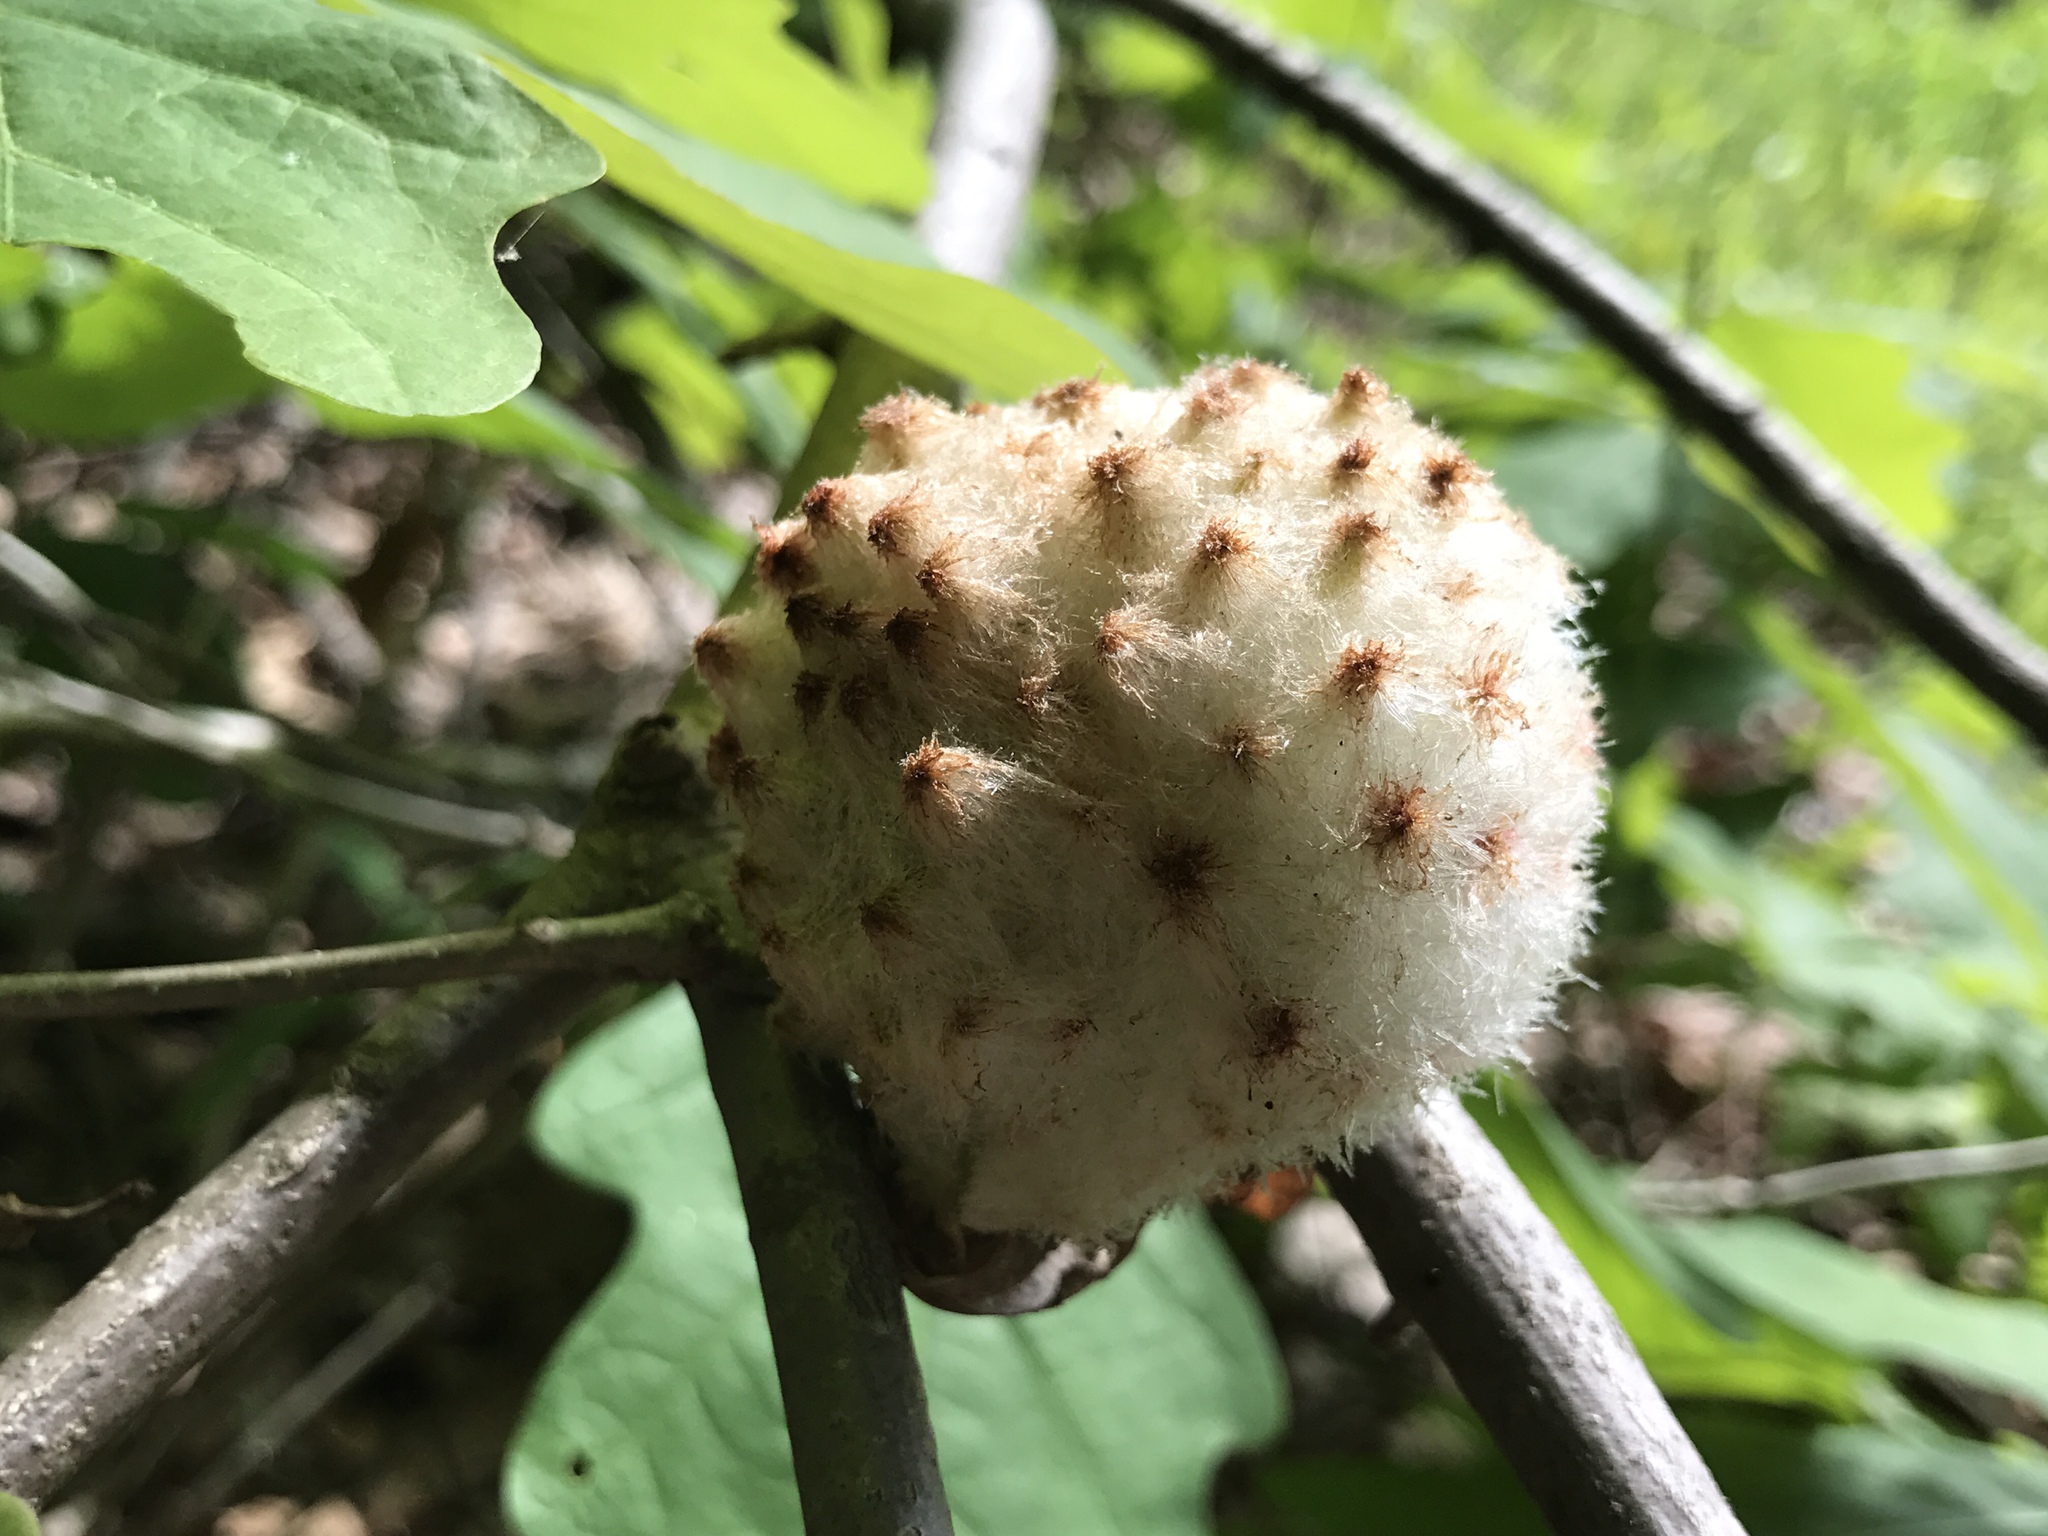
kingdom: Animalia
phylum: Arthropoda
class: Insecta
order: Hymenoptera
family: Cynipidae
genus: Callirhytis
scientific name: Callirhytis
